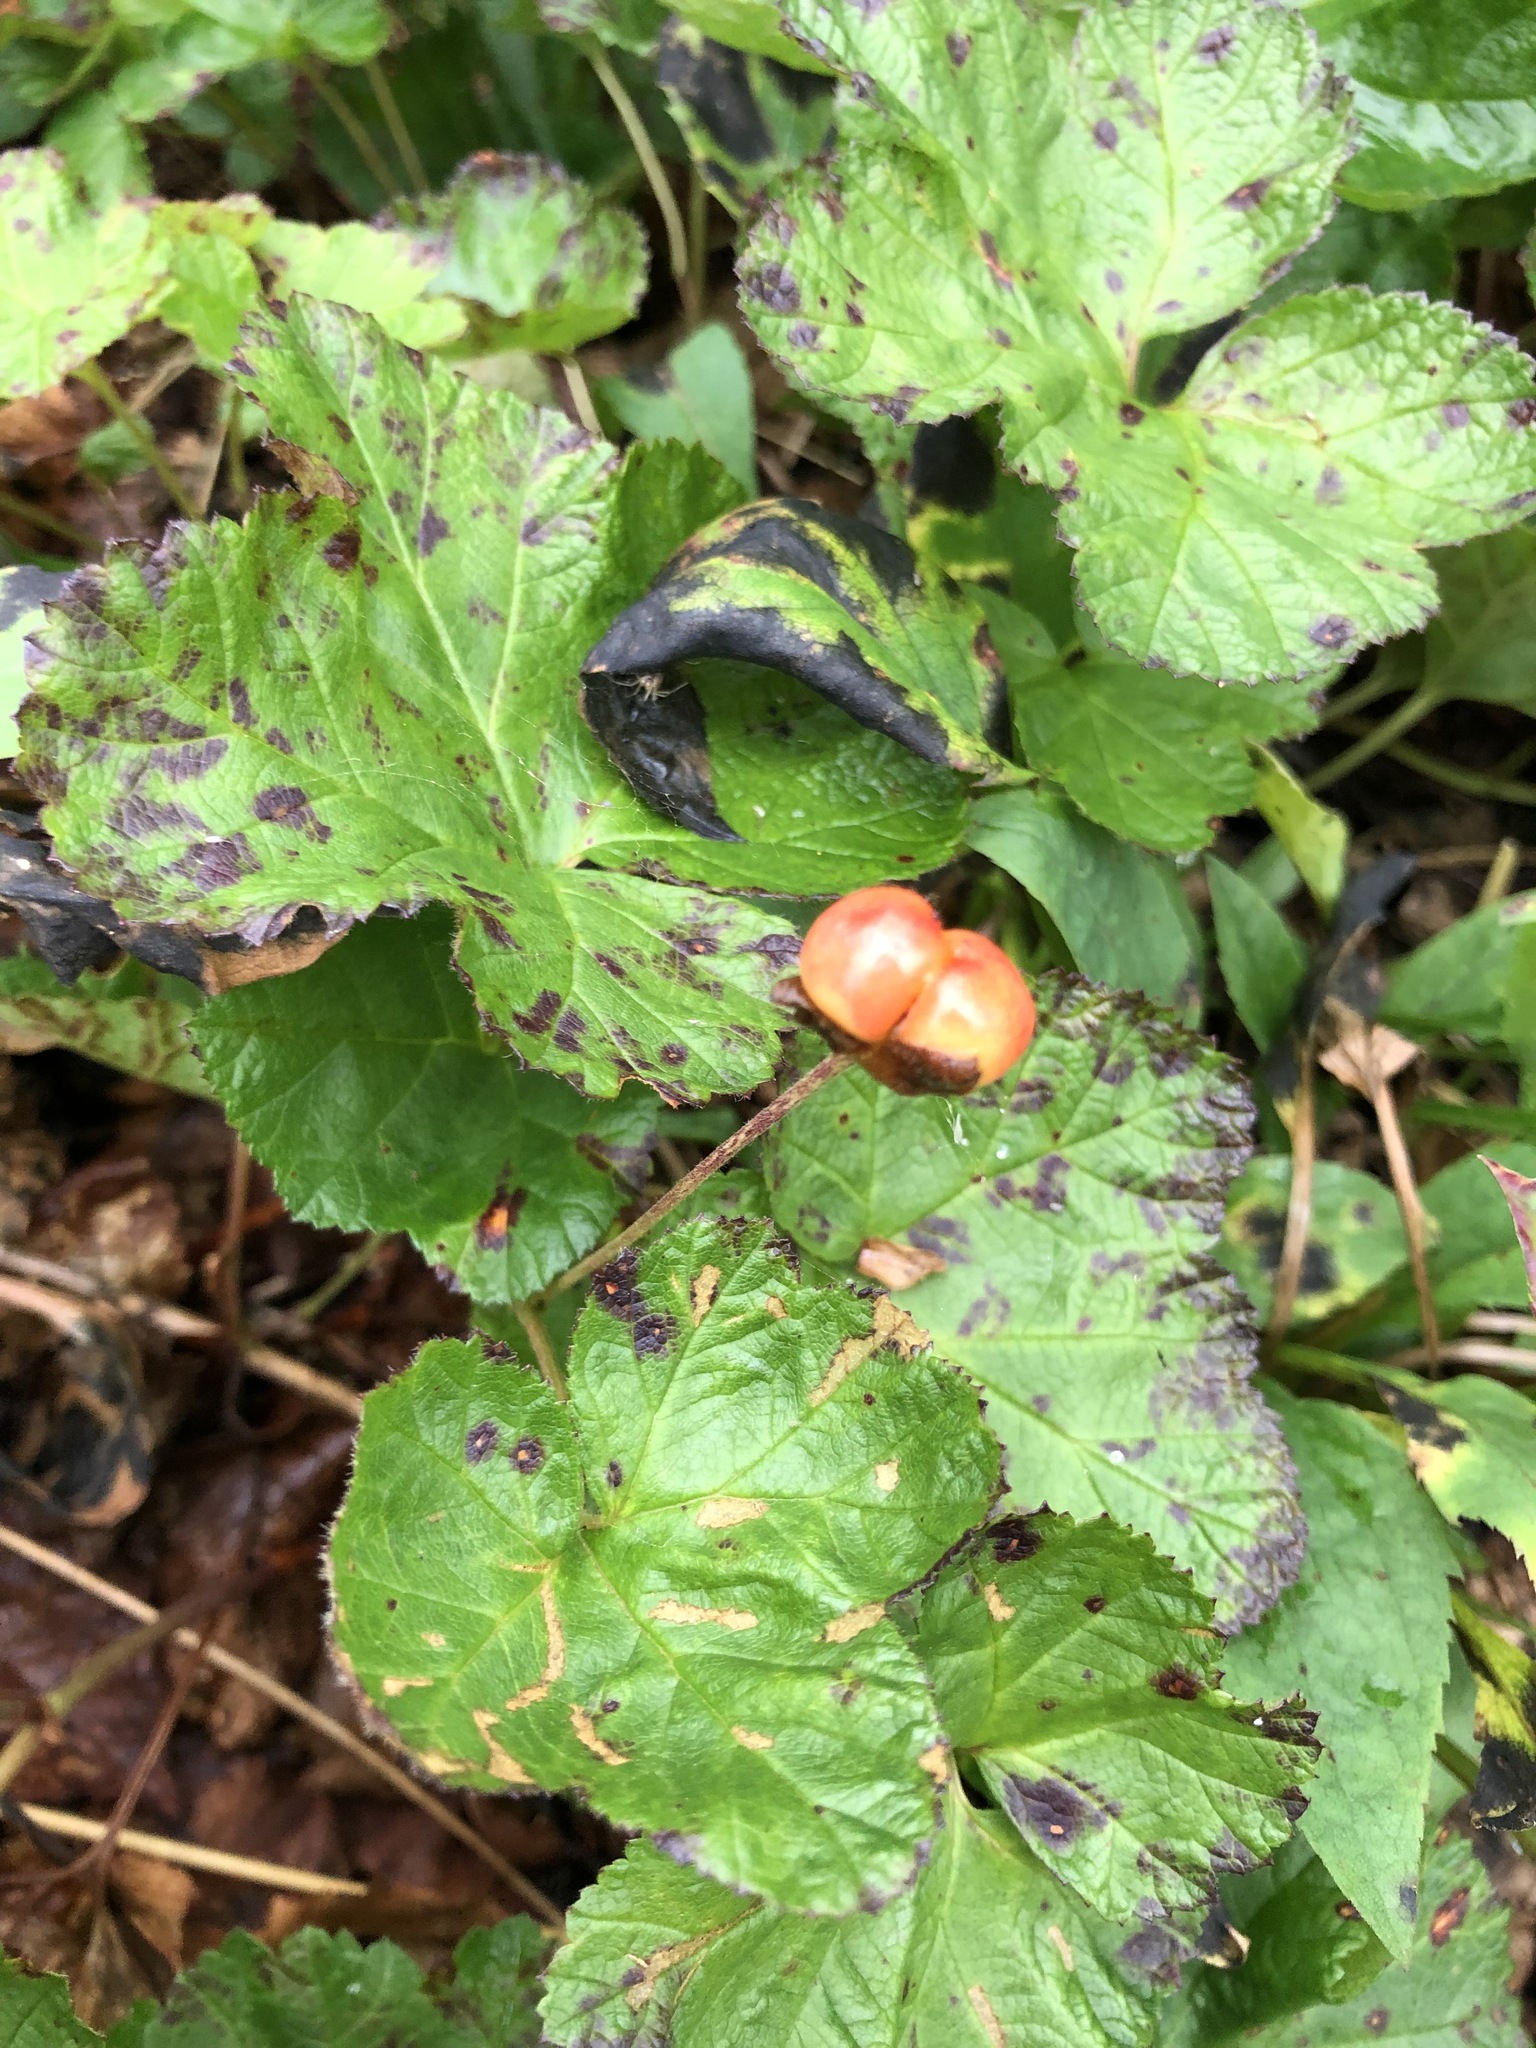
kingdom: Plantae
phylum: Tracheophyta
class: Magnoliopsida
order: Rosales
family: Rosaceae
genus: Rubus
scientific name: Rubus chamaemorus
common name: Cloudberry
